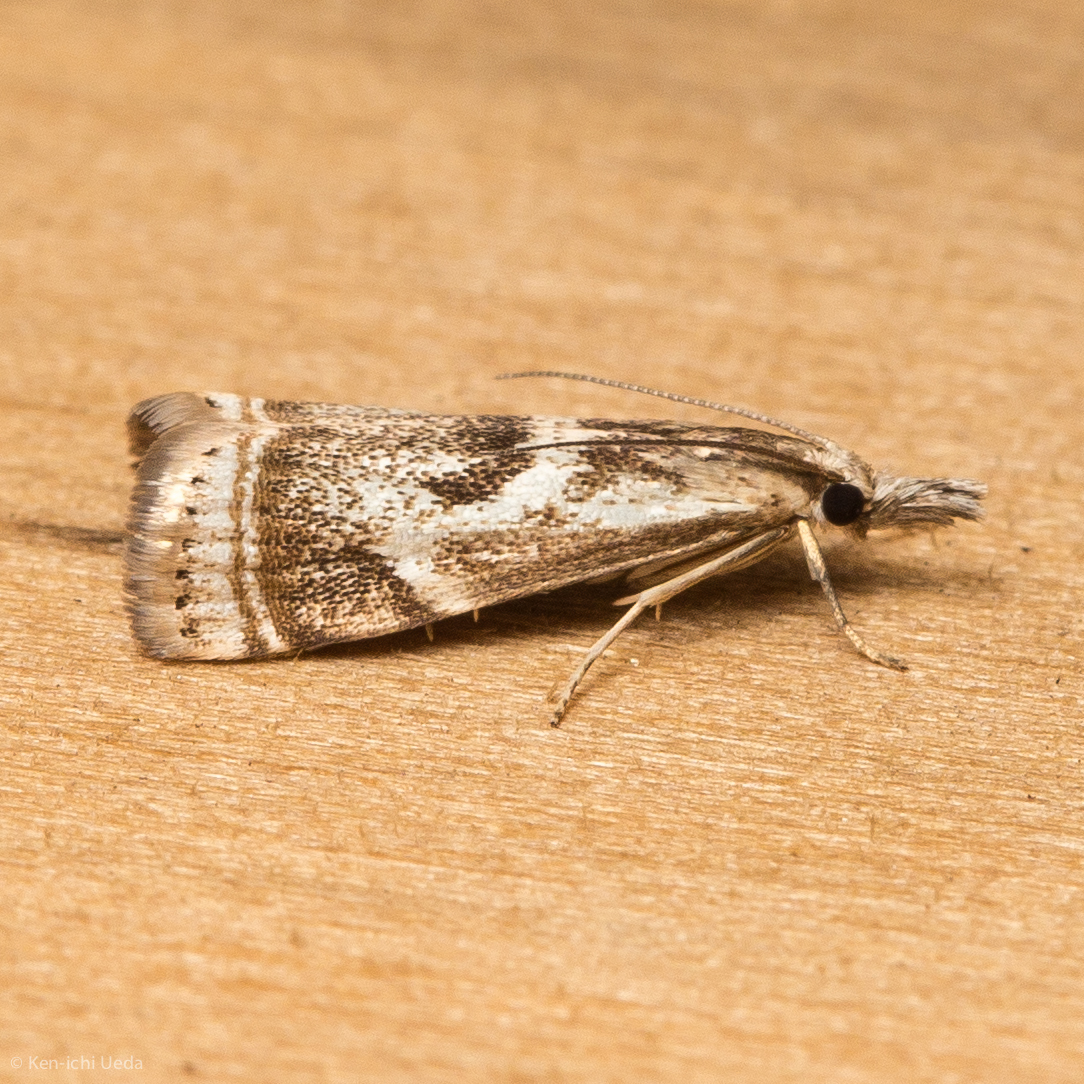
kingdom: Animalia
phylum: Arthropoda
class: Insecta
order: Lepidoptera
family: Crambidae
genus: Microcrambus
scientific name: Microcrambus elegans
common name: Elegant grass-veneer
